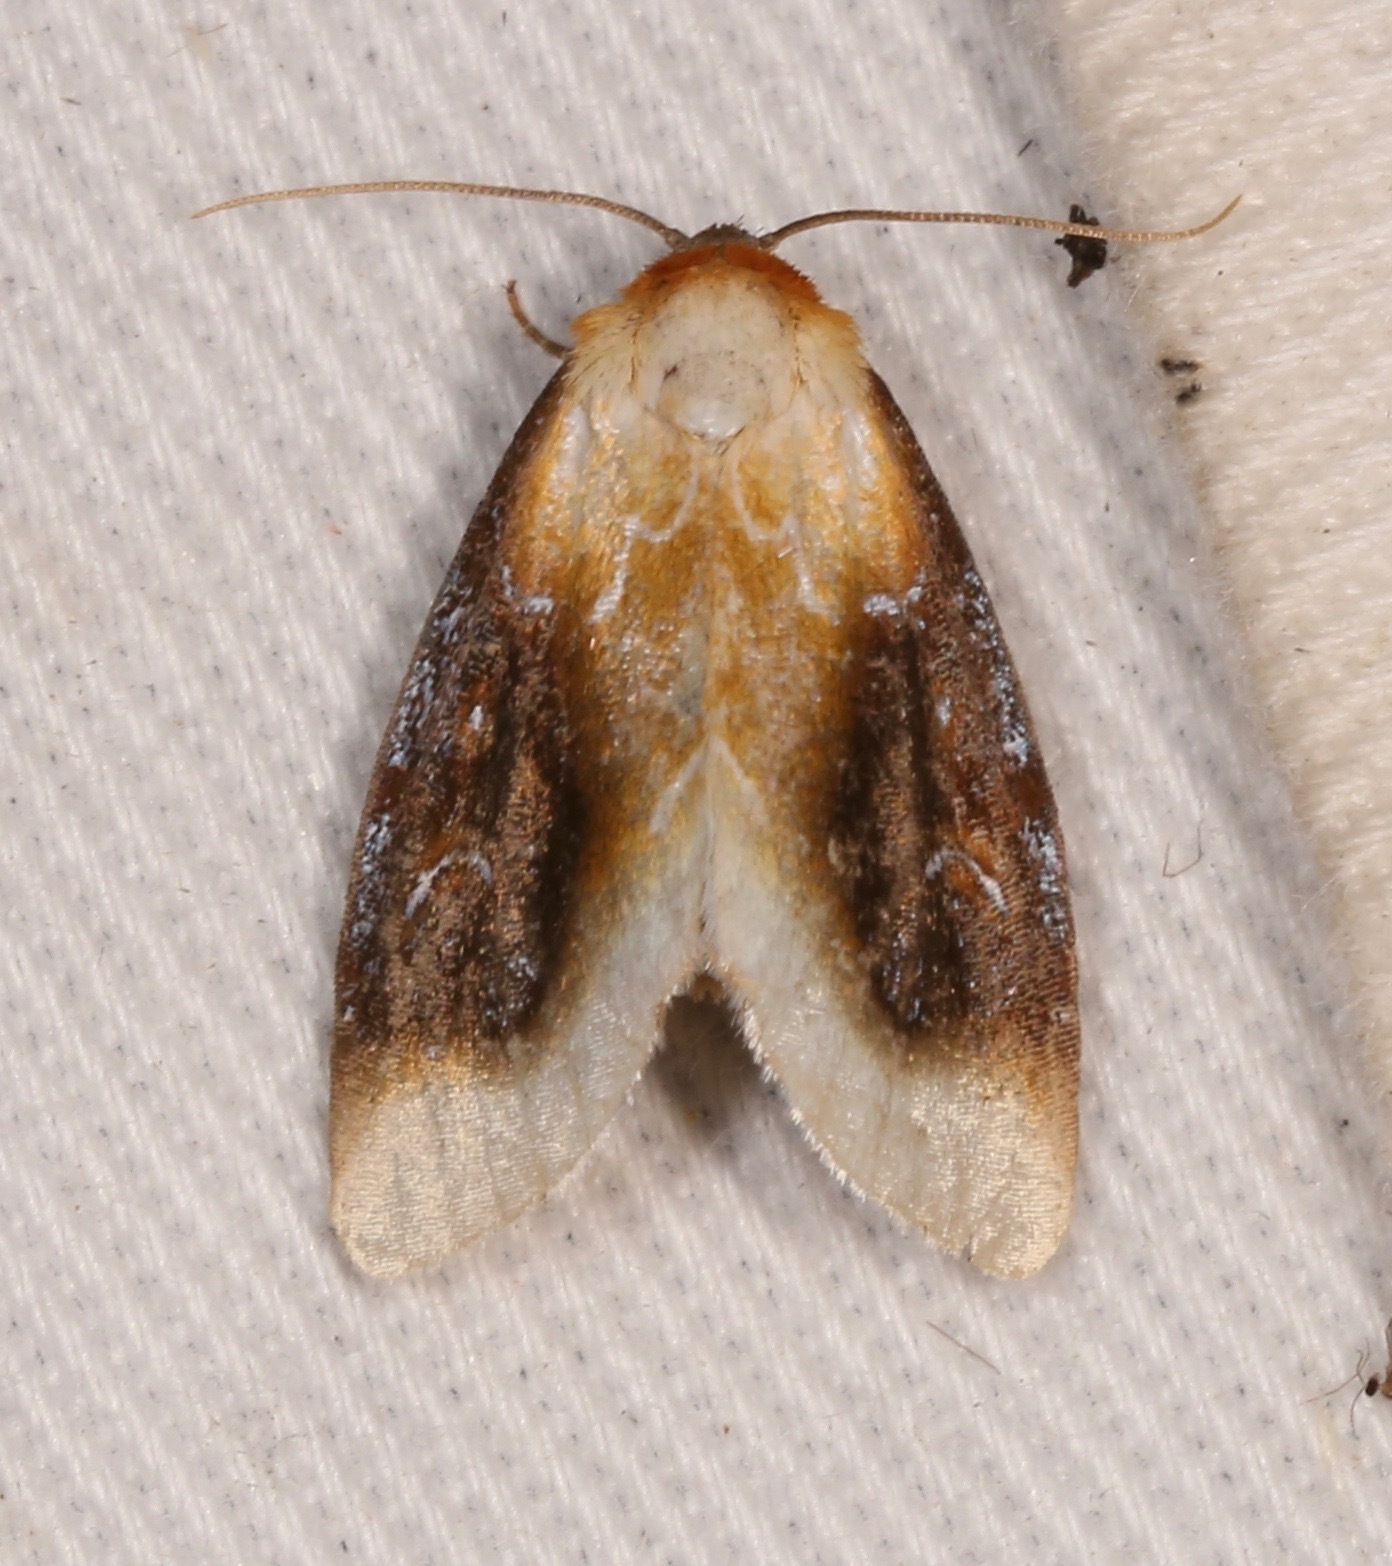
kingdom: Animalia
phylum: Arthropoda
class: Insecta
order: Lepidoptera
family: Noctuidae
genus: Chrysoecia
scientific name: Chrysoecia scira
